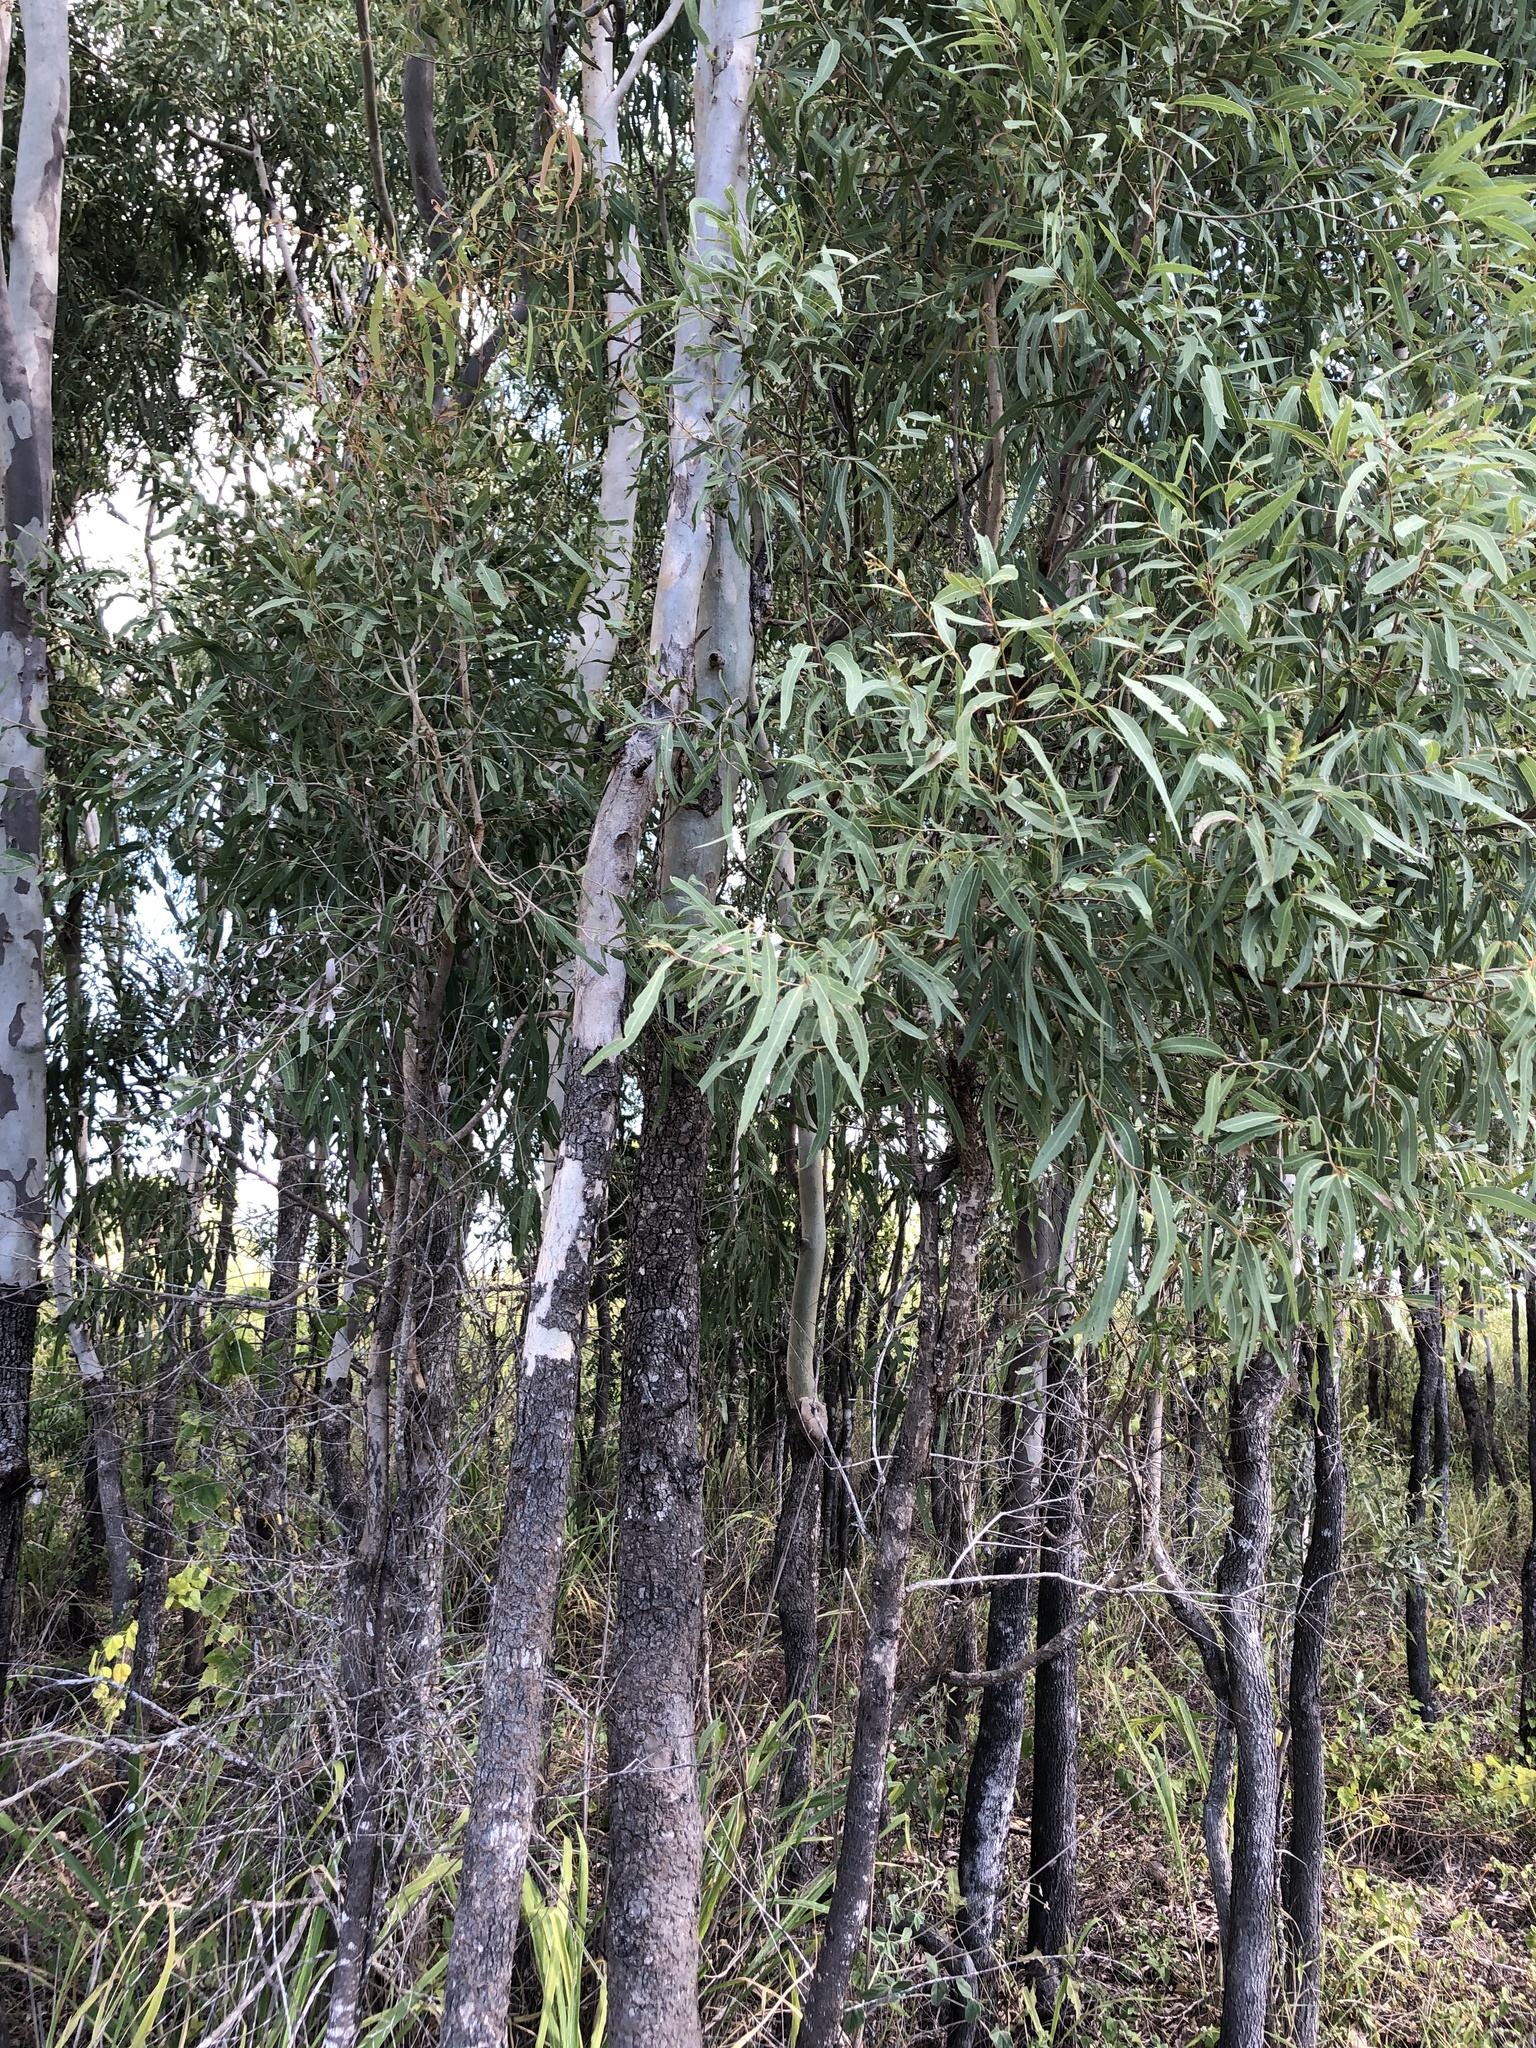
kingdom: Plantae
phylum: Tracheophyta
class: Magnoliopsida
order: Myrtales
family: Myrtaceae
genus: Corymbia
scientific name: Corymbia tessellaris
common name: Carbeen
